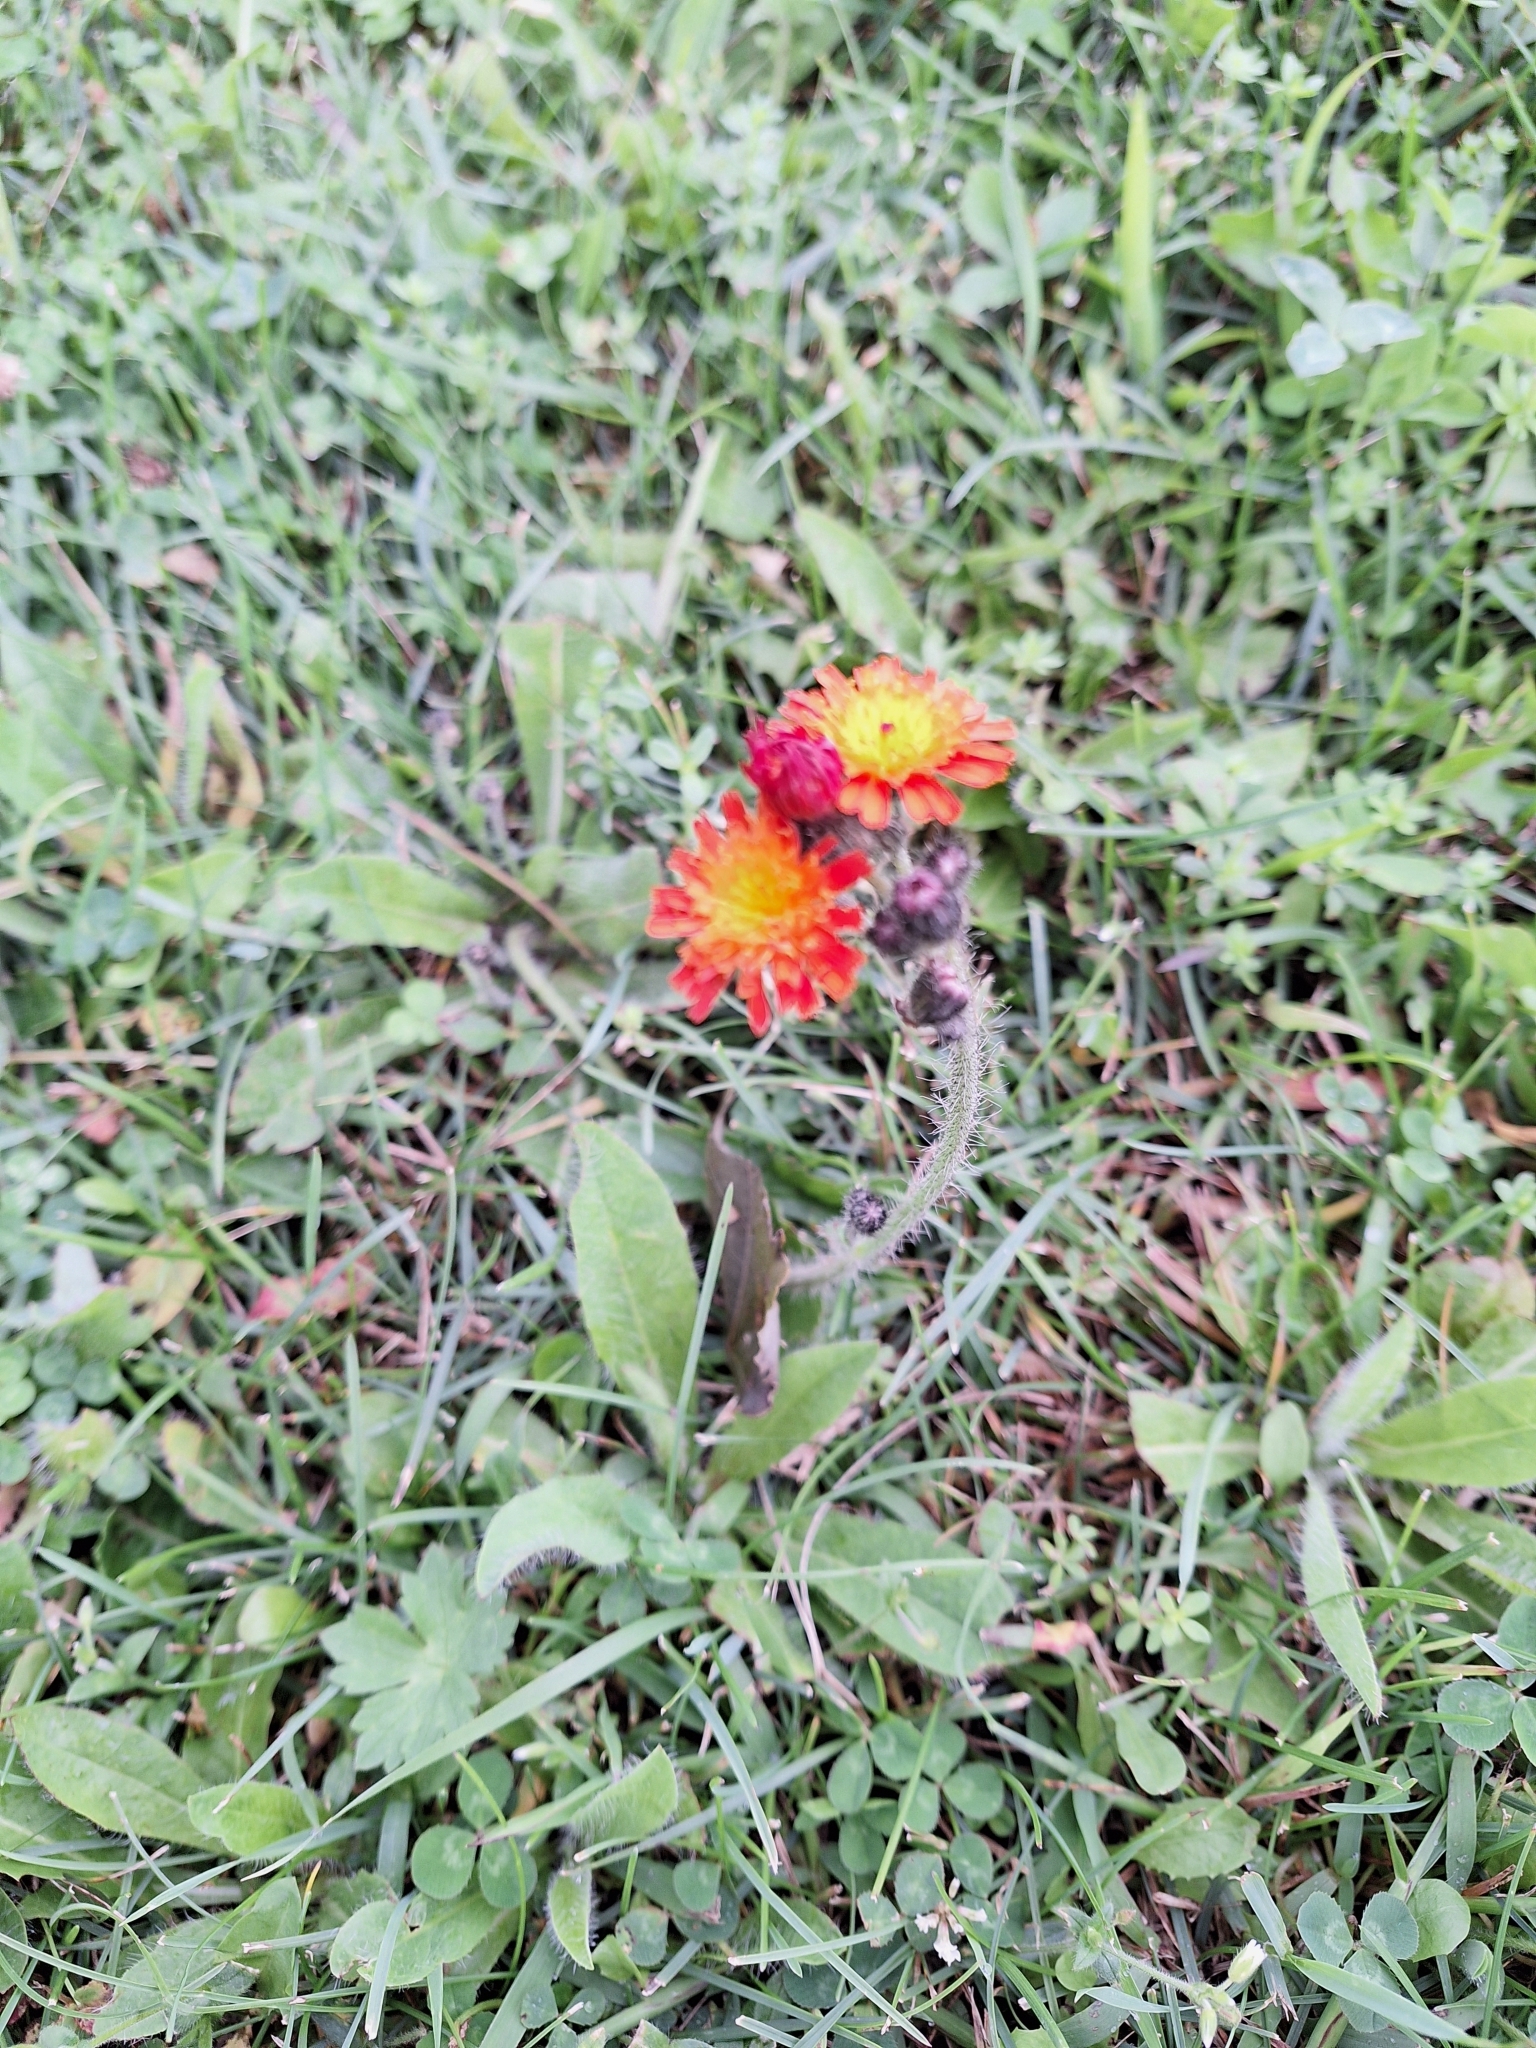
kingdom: Plantae
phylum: Tracheophyta
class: Magnoliopsida
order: Asterales
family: Asteraceae
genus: Pilosella
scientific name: Pilosella aurantiaca
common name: Fox-and-cubs
